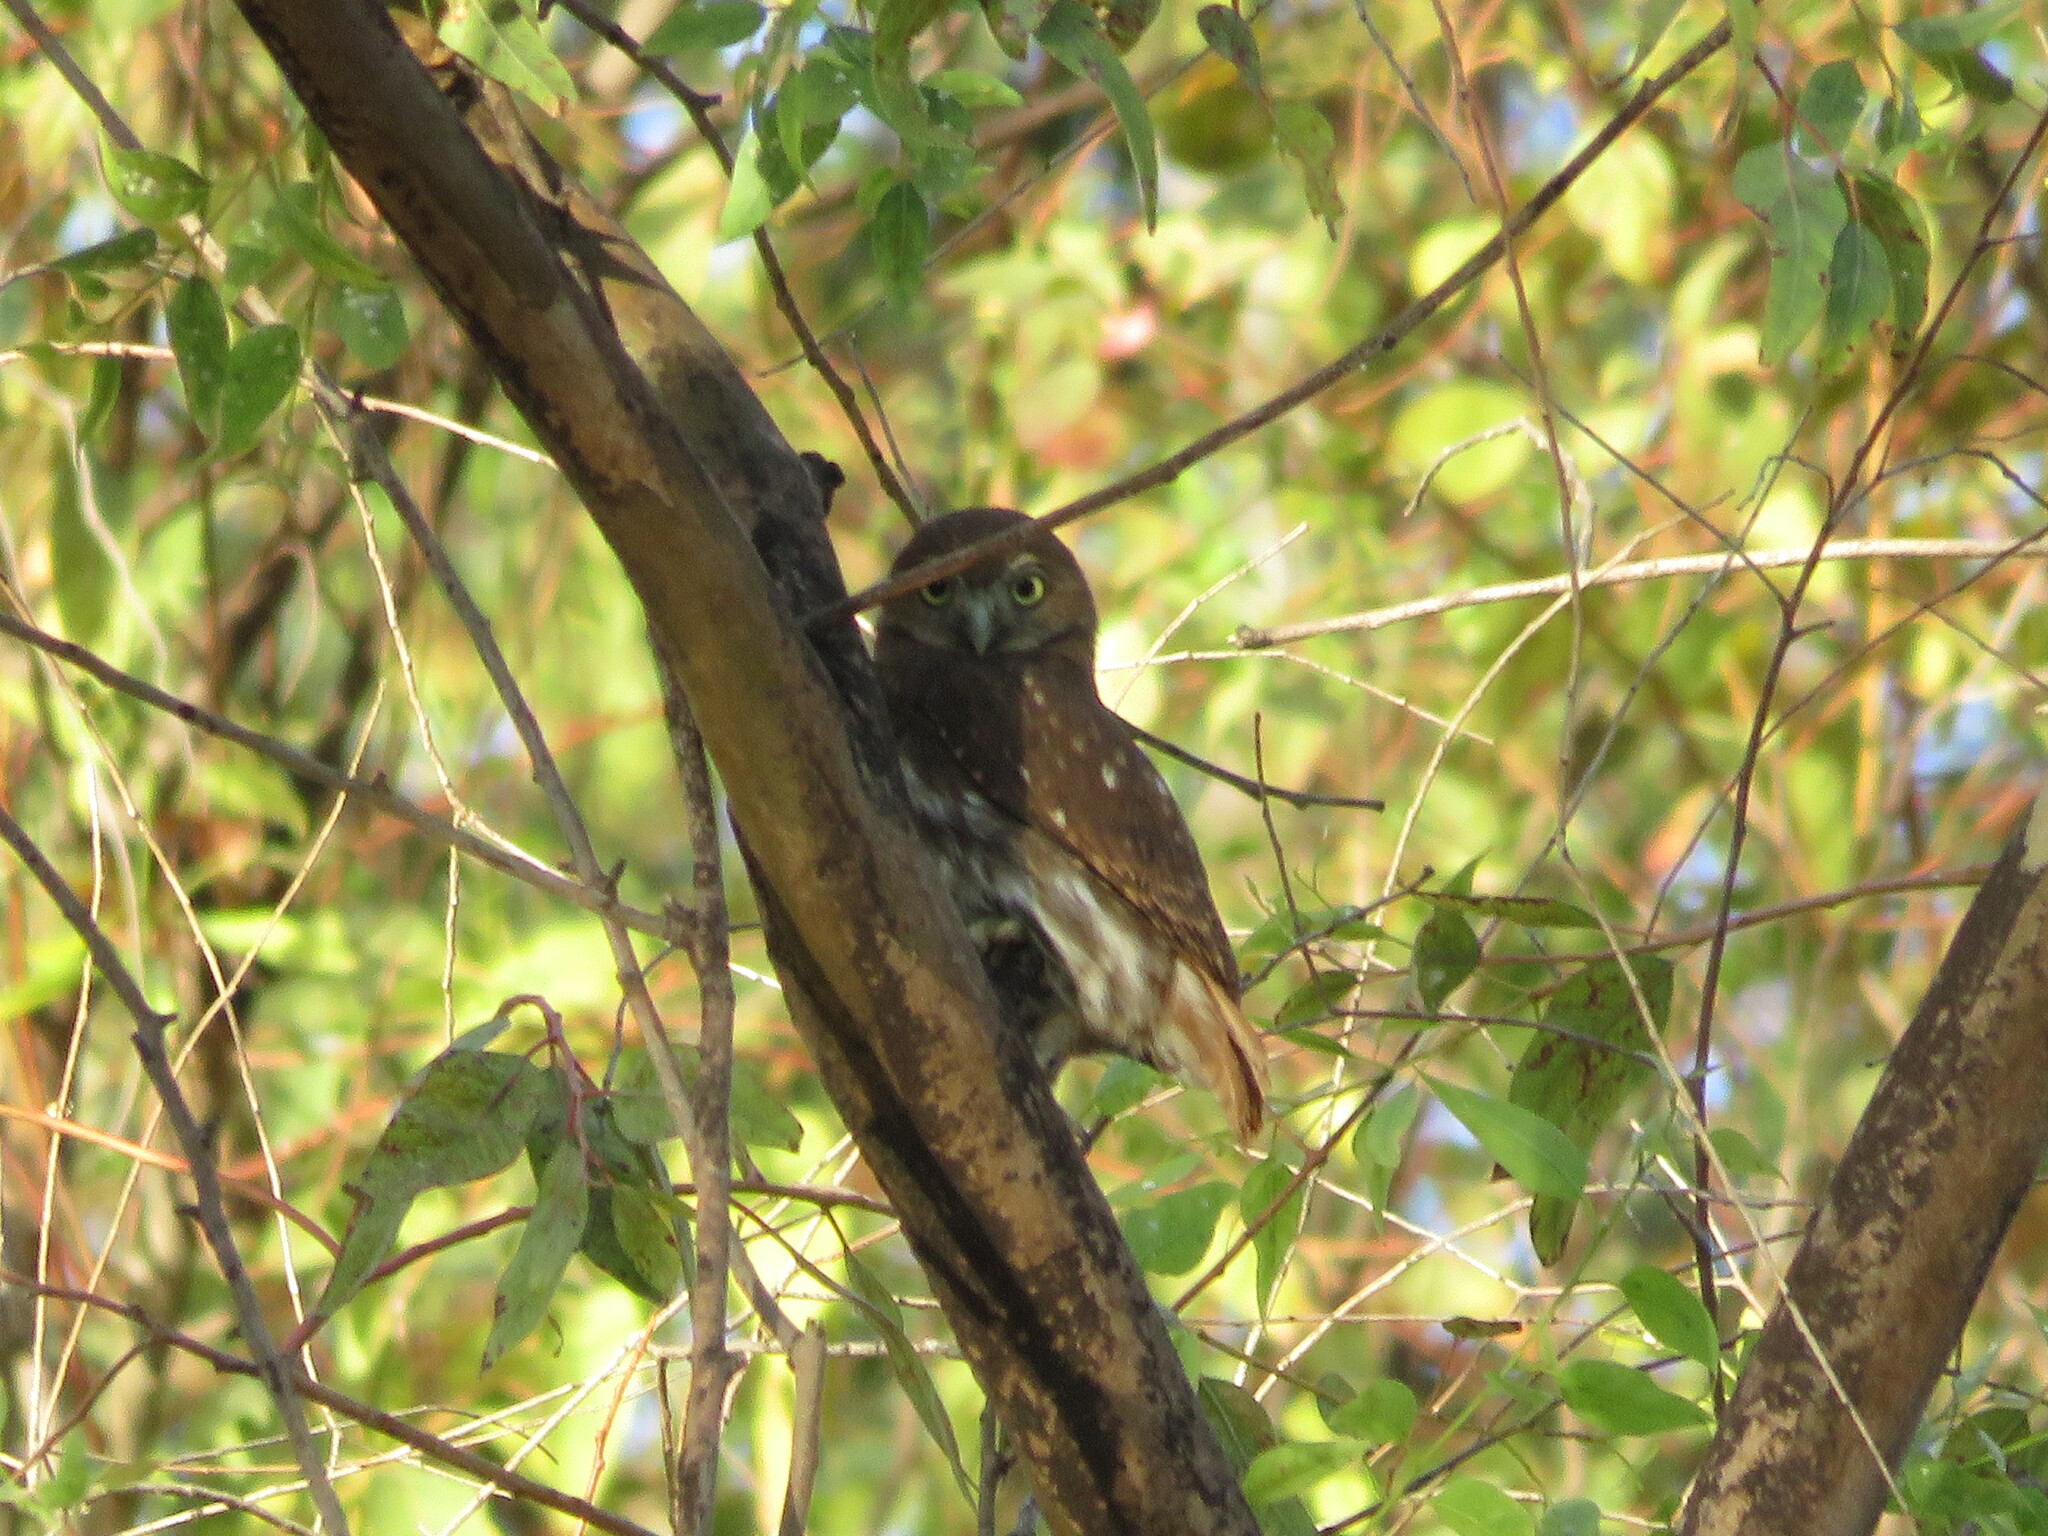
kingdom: Animalia
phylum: Chordata
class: Aves
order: Strigiformes
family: Strigidae
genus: Glaucidium
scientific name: Glaucidium brasilianum
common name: Ferruginous pygmy-owl
